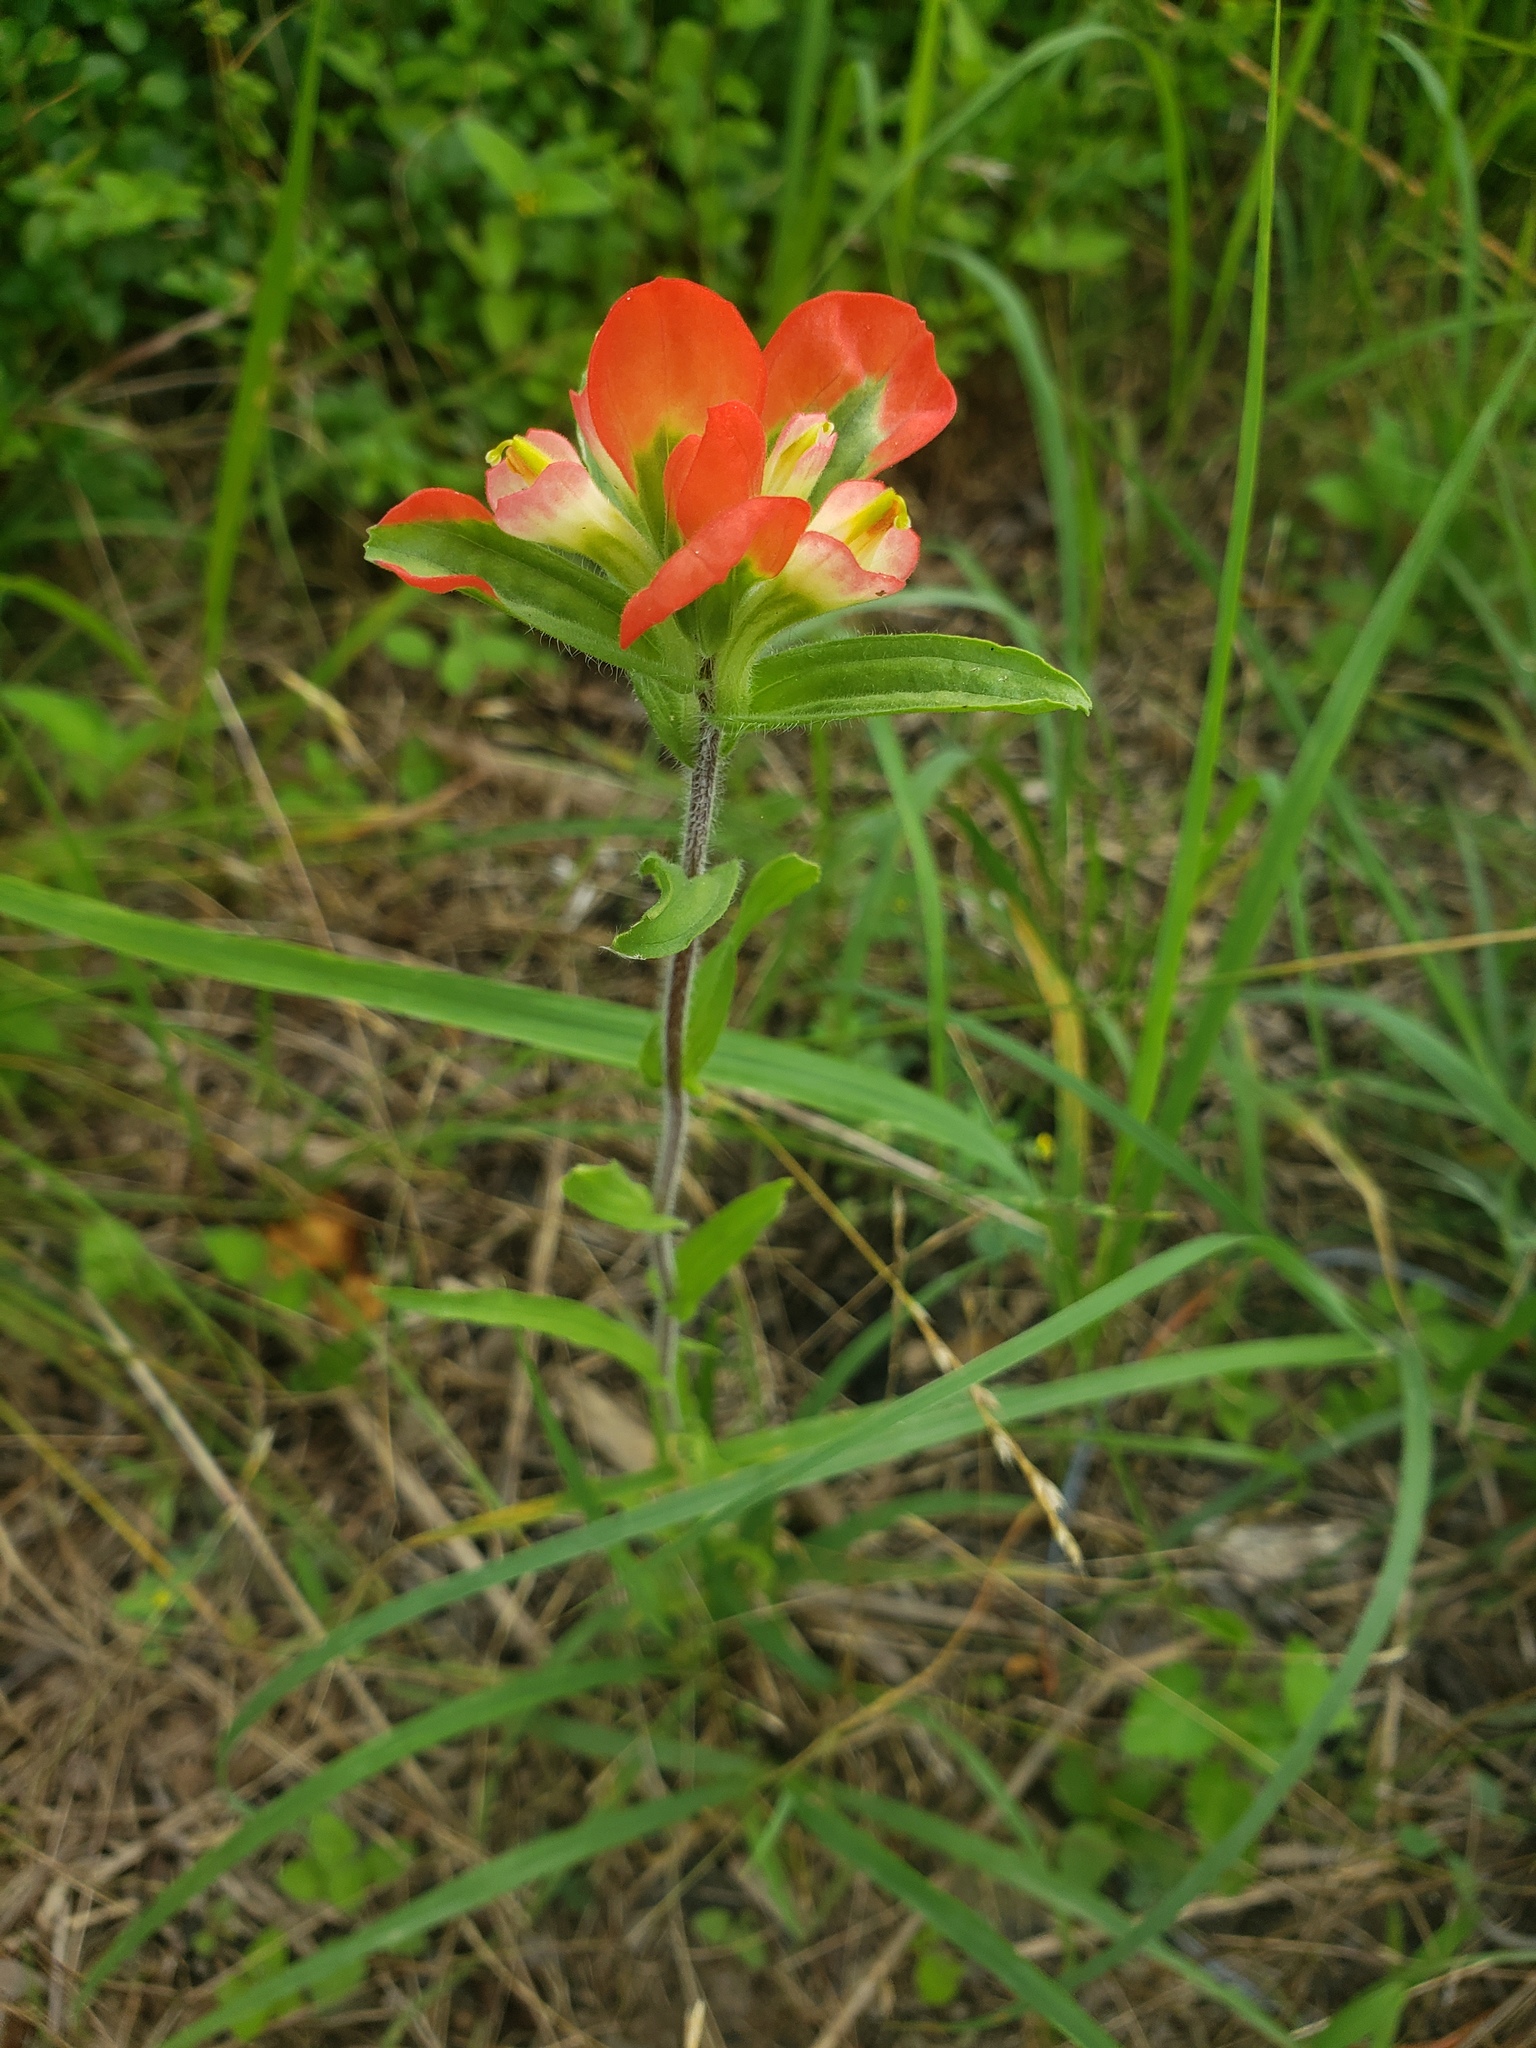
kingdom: Plantae
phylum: Tracheophyta
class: Magnoliopsida
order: Lamiales
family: Orobanchaceae
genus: Castilleja
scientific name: Castilleja indivisa
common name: Texas paintbrush
